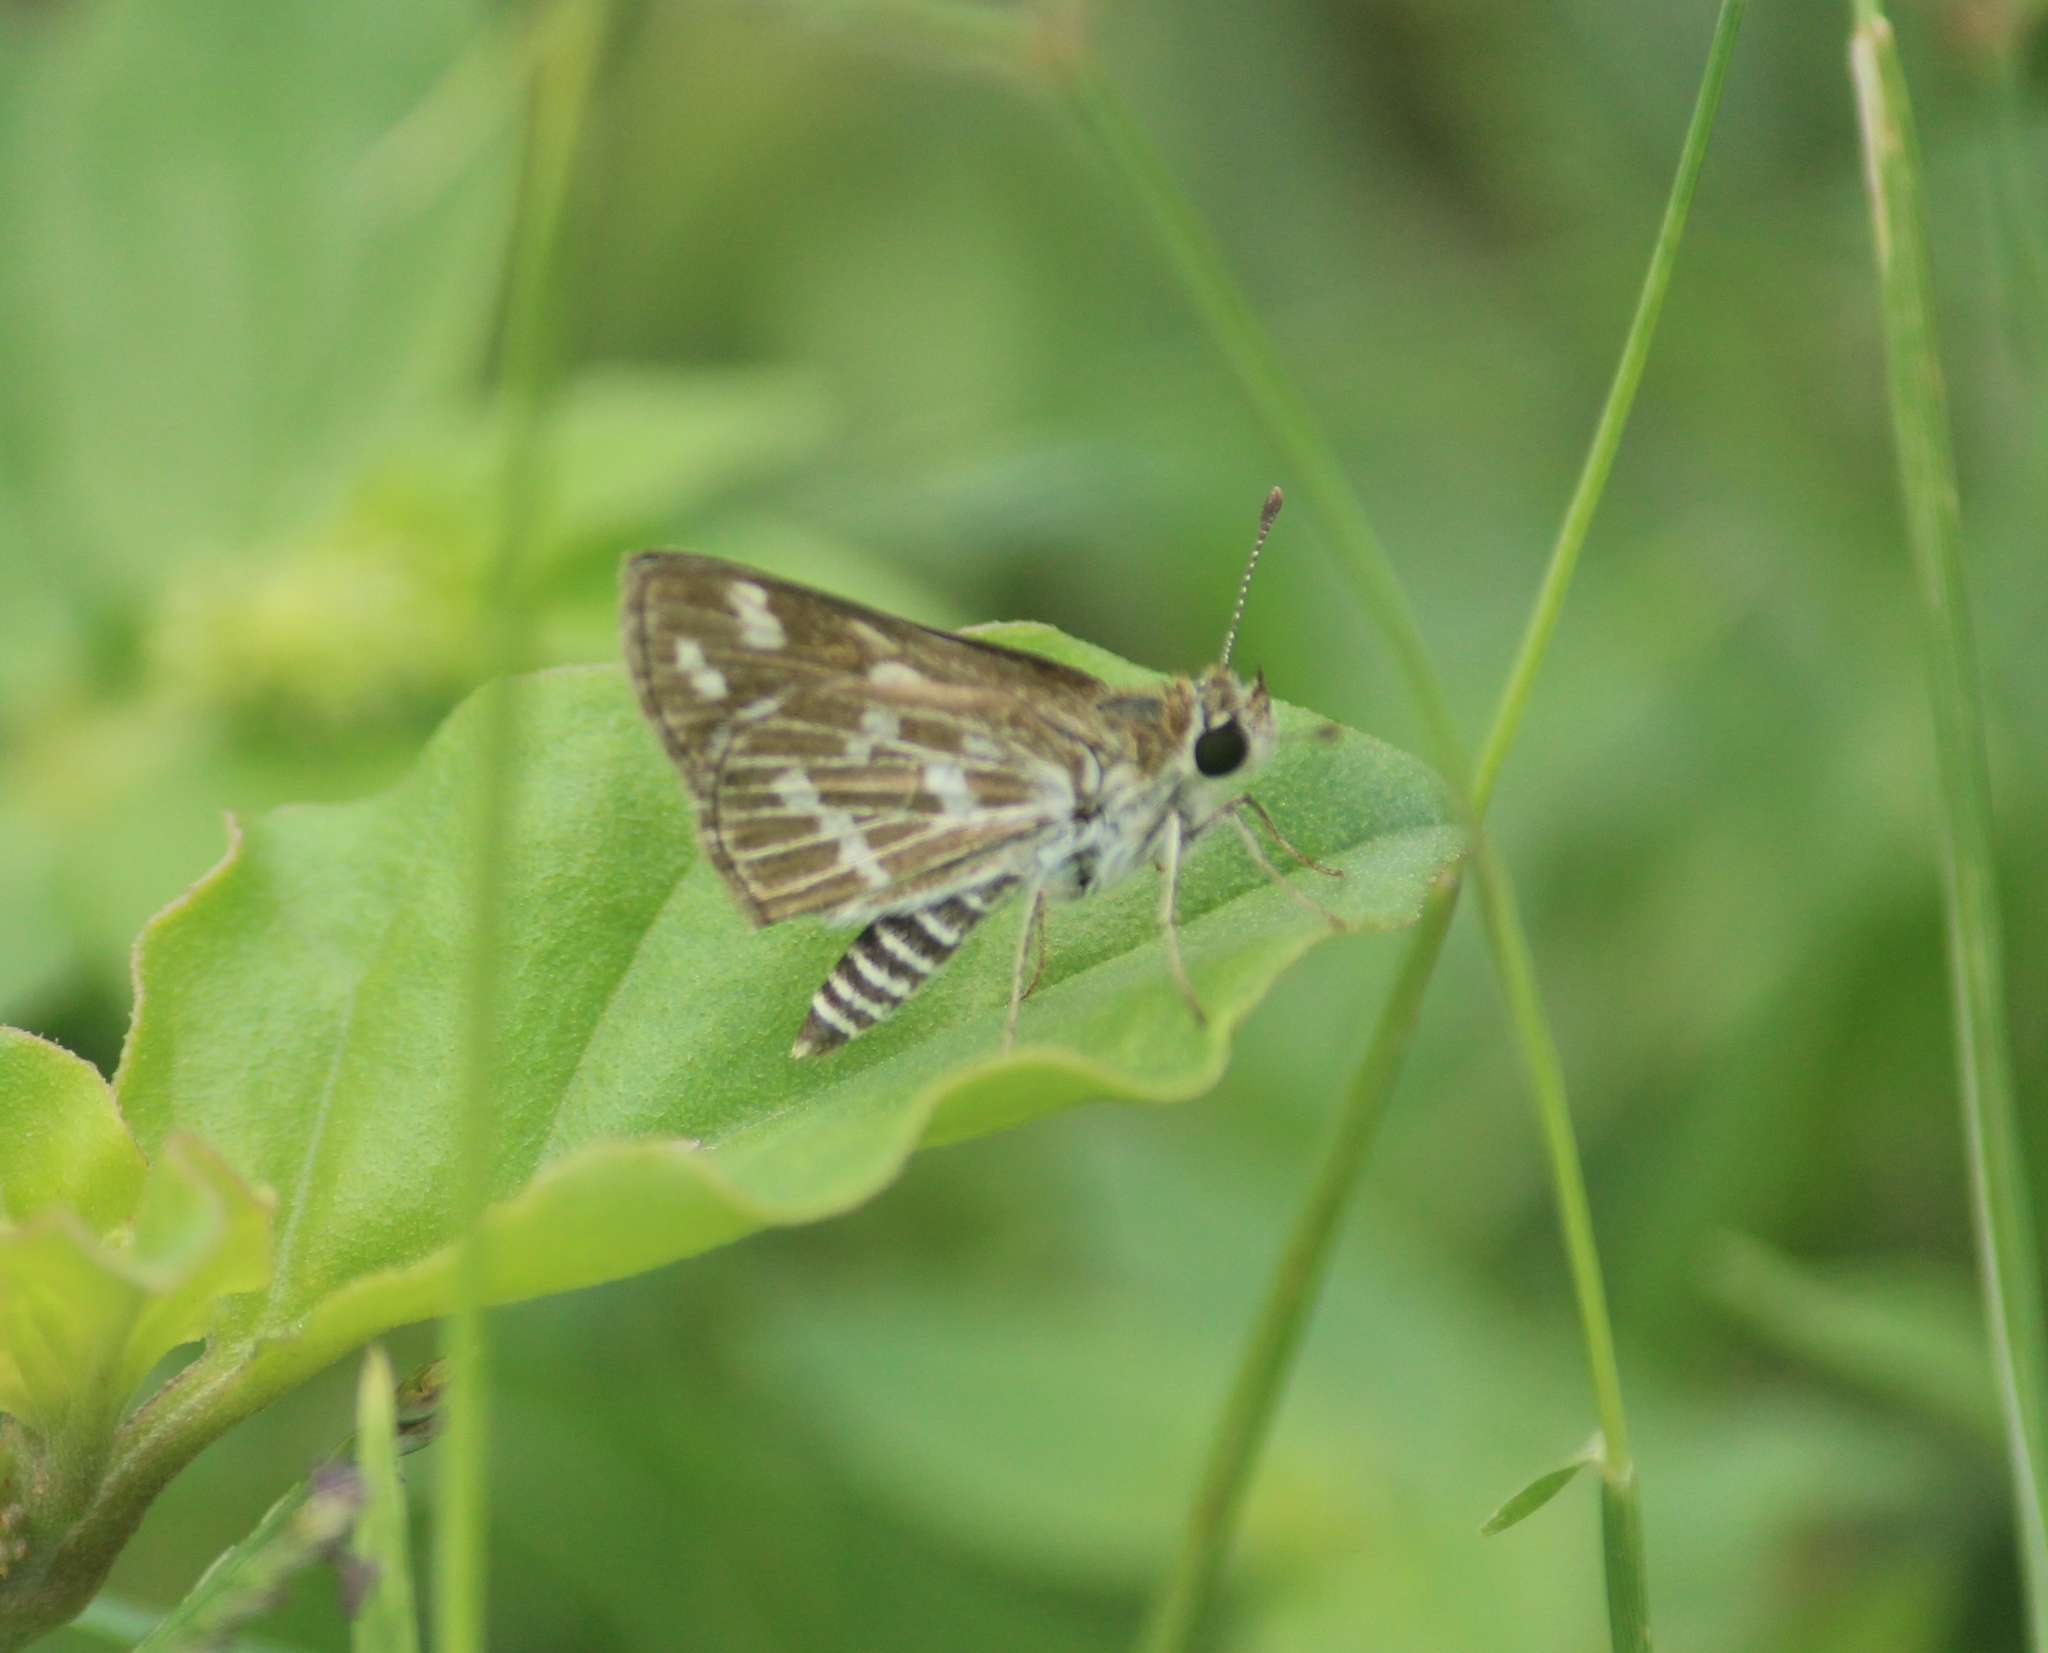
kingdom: Animalia
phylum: Arthropoda
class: Insecta
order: Lepidoptera
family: Hesperiidae
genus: Taractrocera
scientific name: Taractrocera maevius
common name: Common grass-dart
